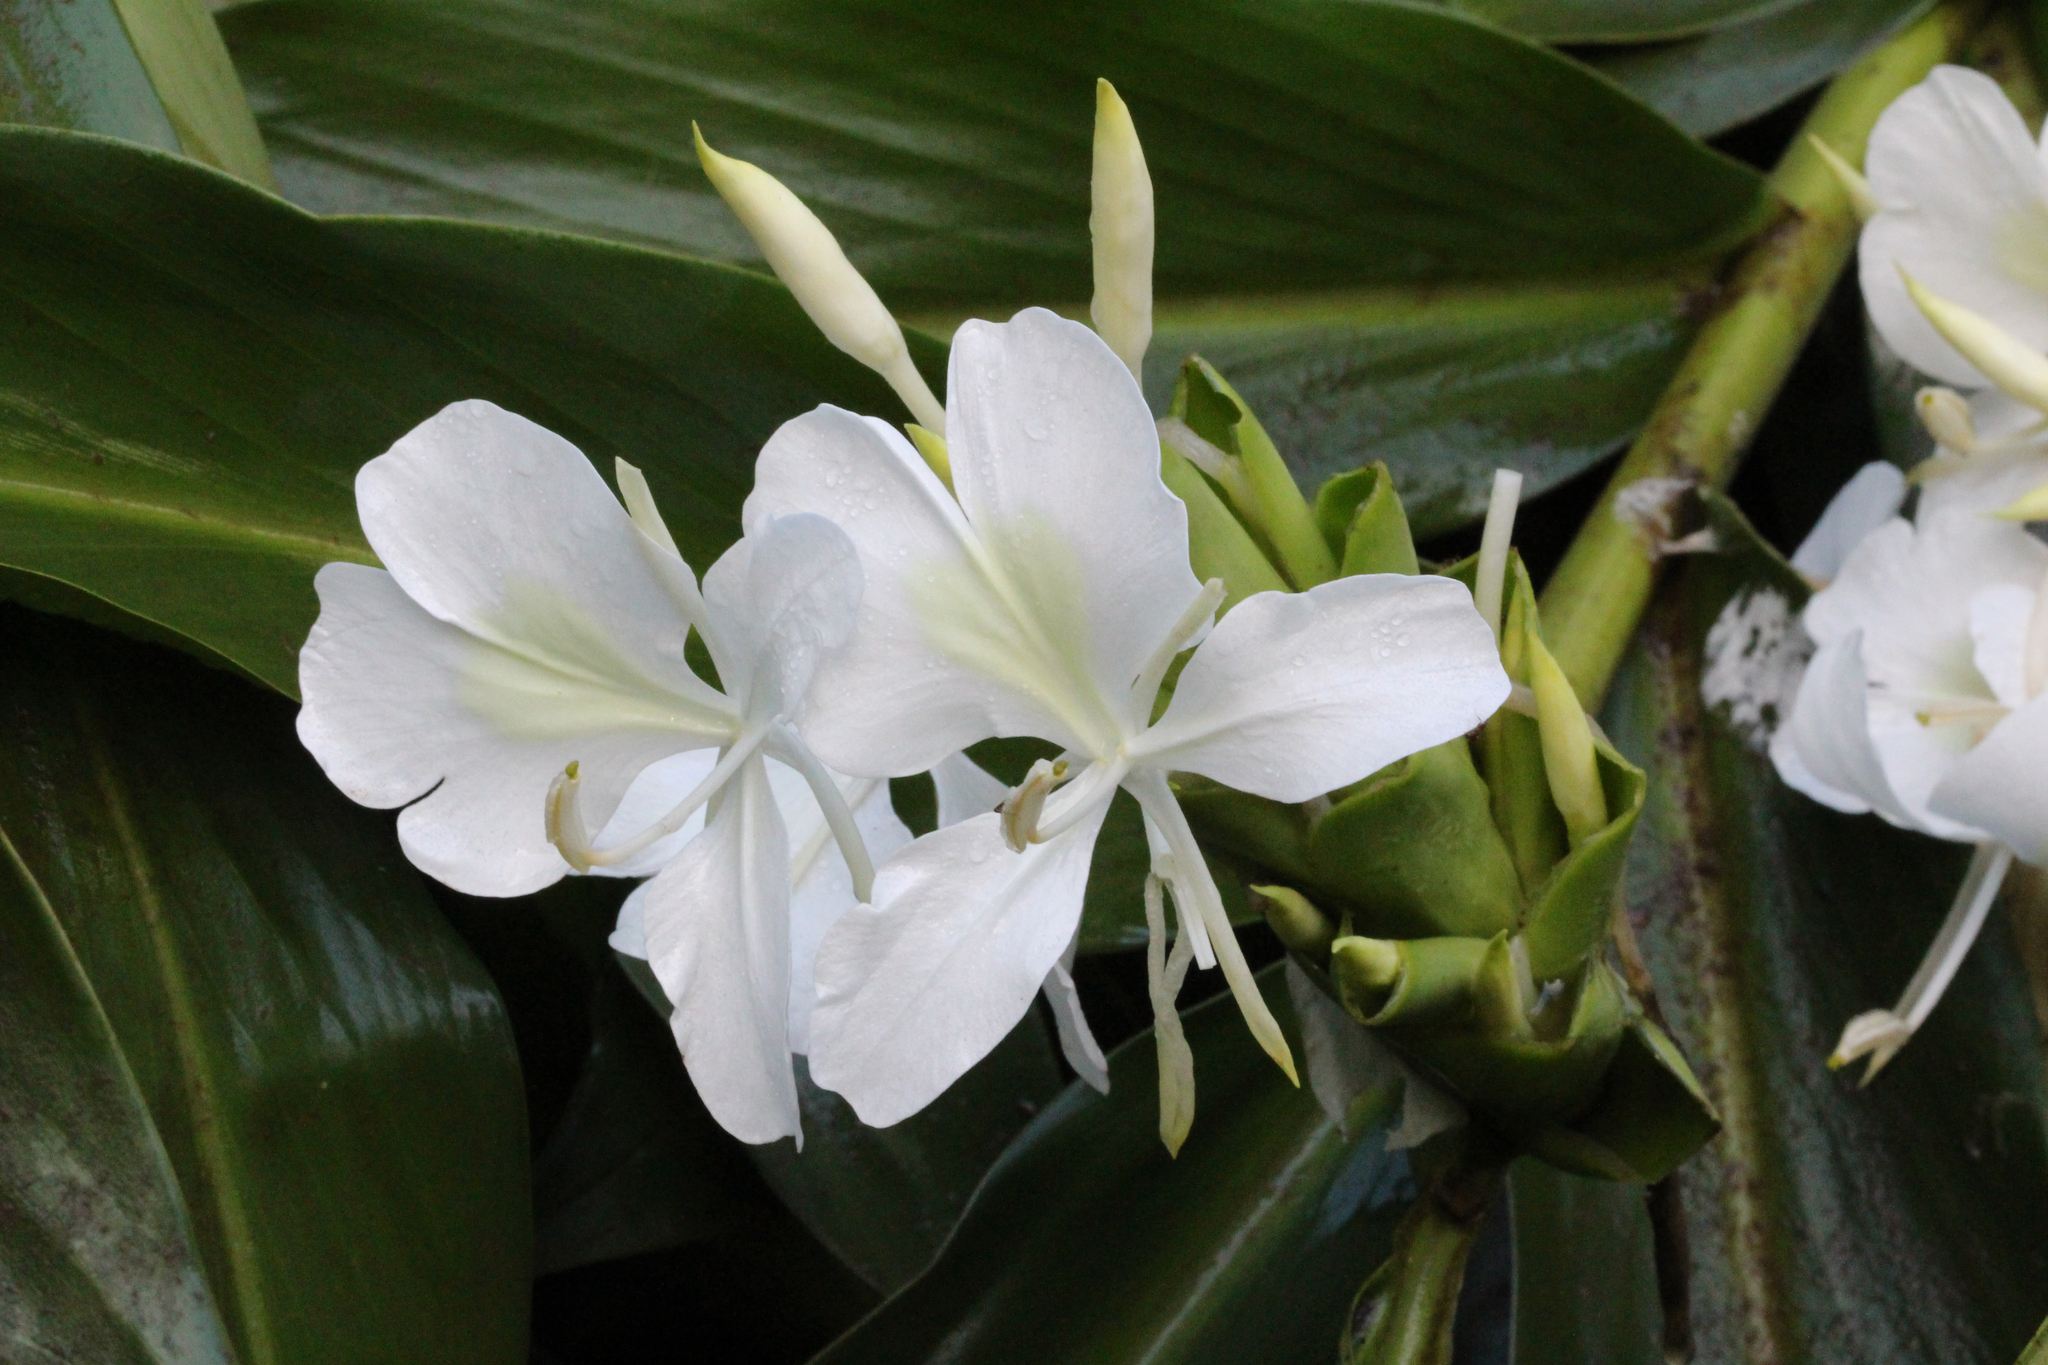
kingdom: Plantae
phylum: Tracheophyta
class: Liliopsida
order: Zingiberales
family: Zingiberaceae
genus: Hedychium
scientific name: Hedychium coronarium
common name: White garland-lily
